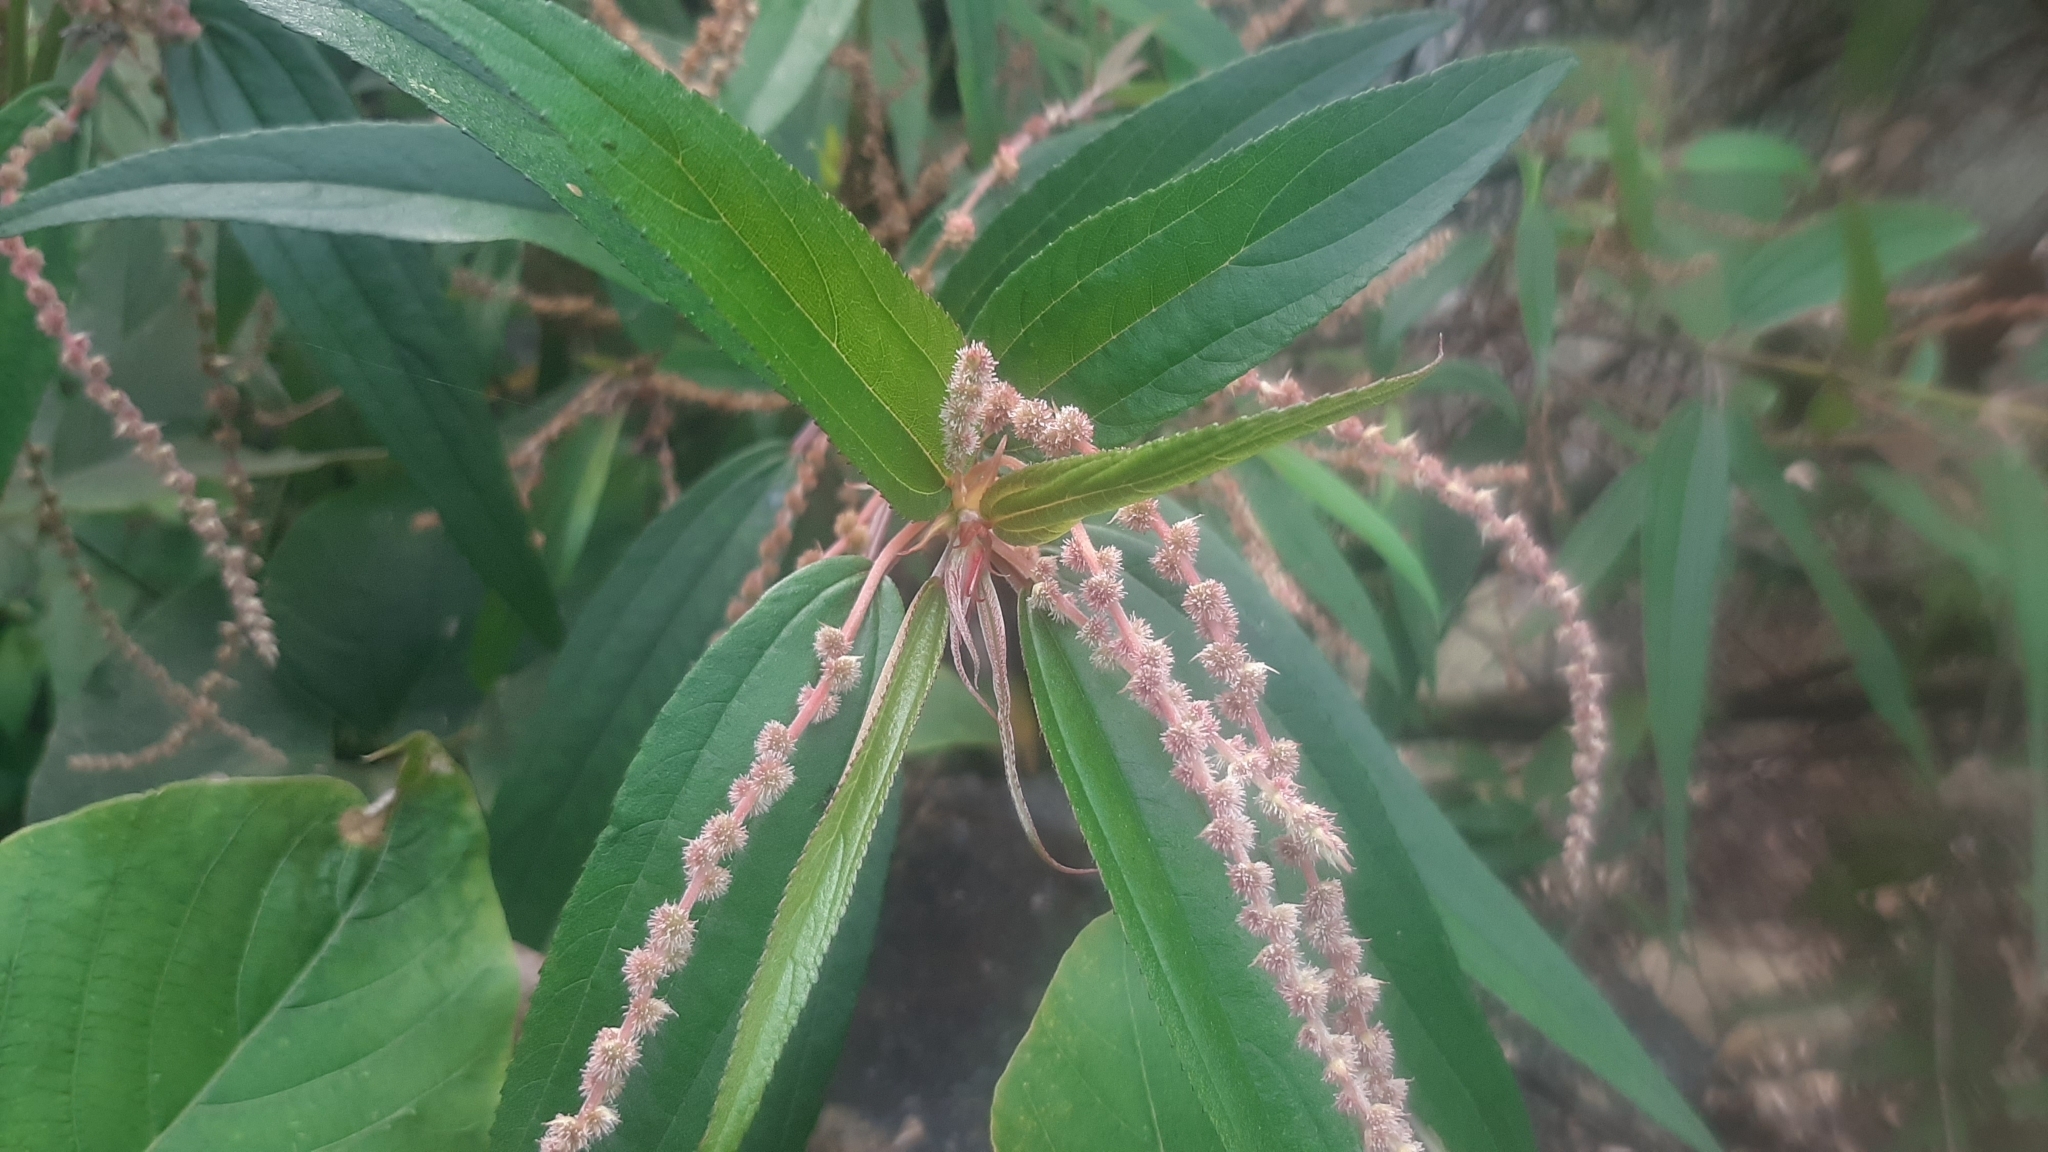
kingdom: Plantae
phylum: Tracheophyta
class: Magnoliopsida
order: Rosales
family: Urticaceae
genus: Boehmeria
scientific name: Boehmeria densiflora
